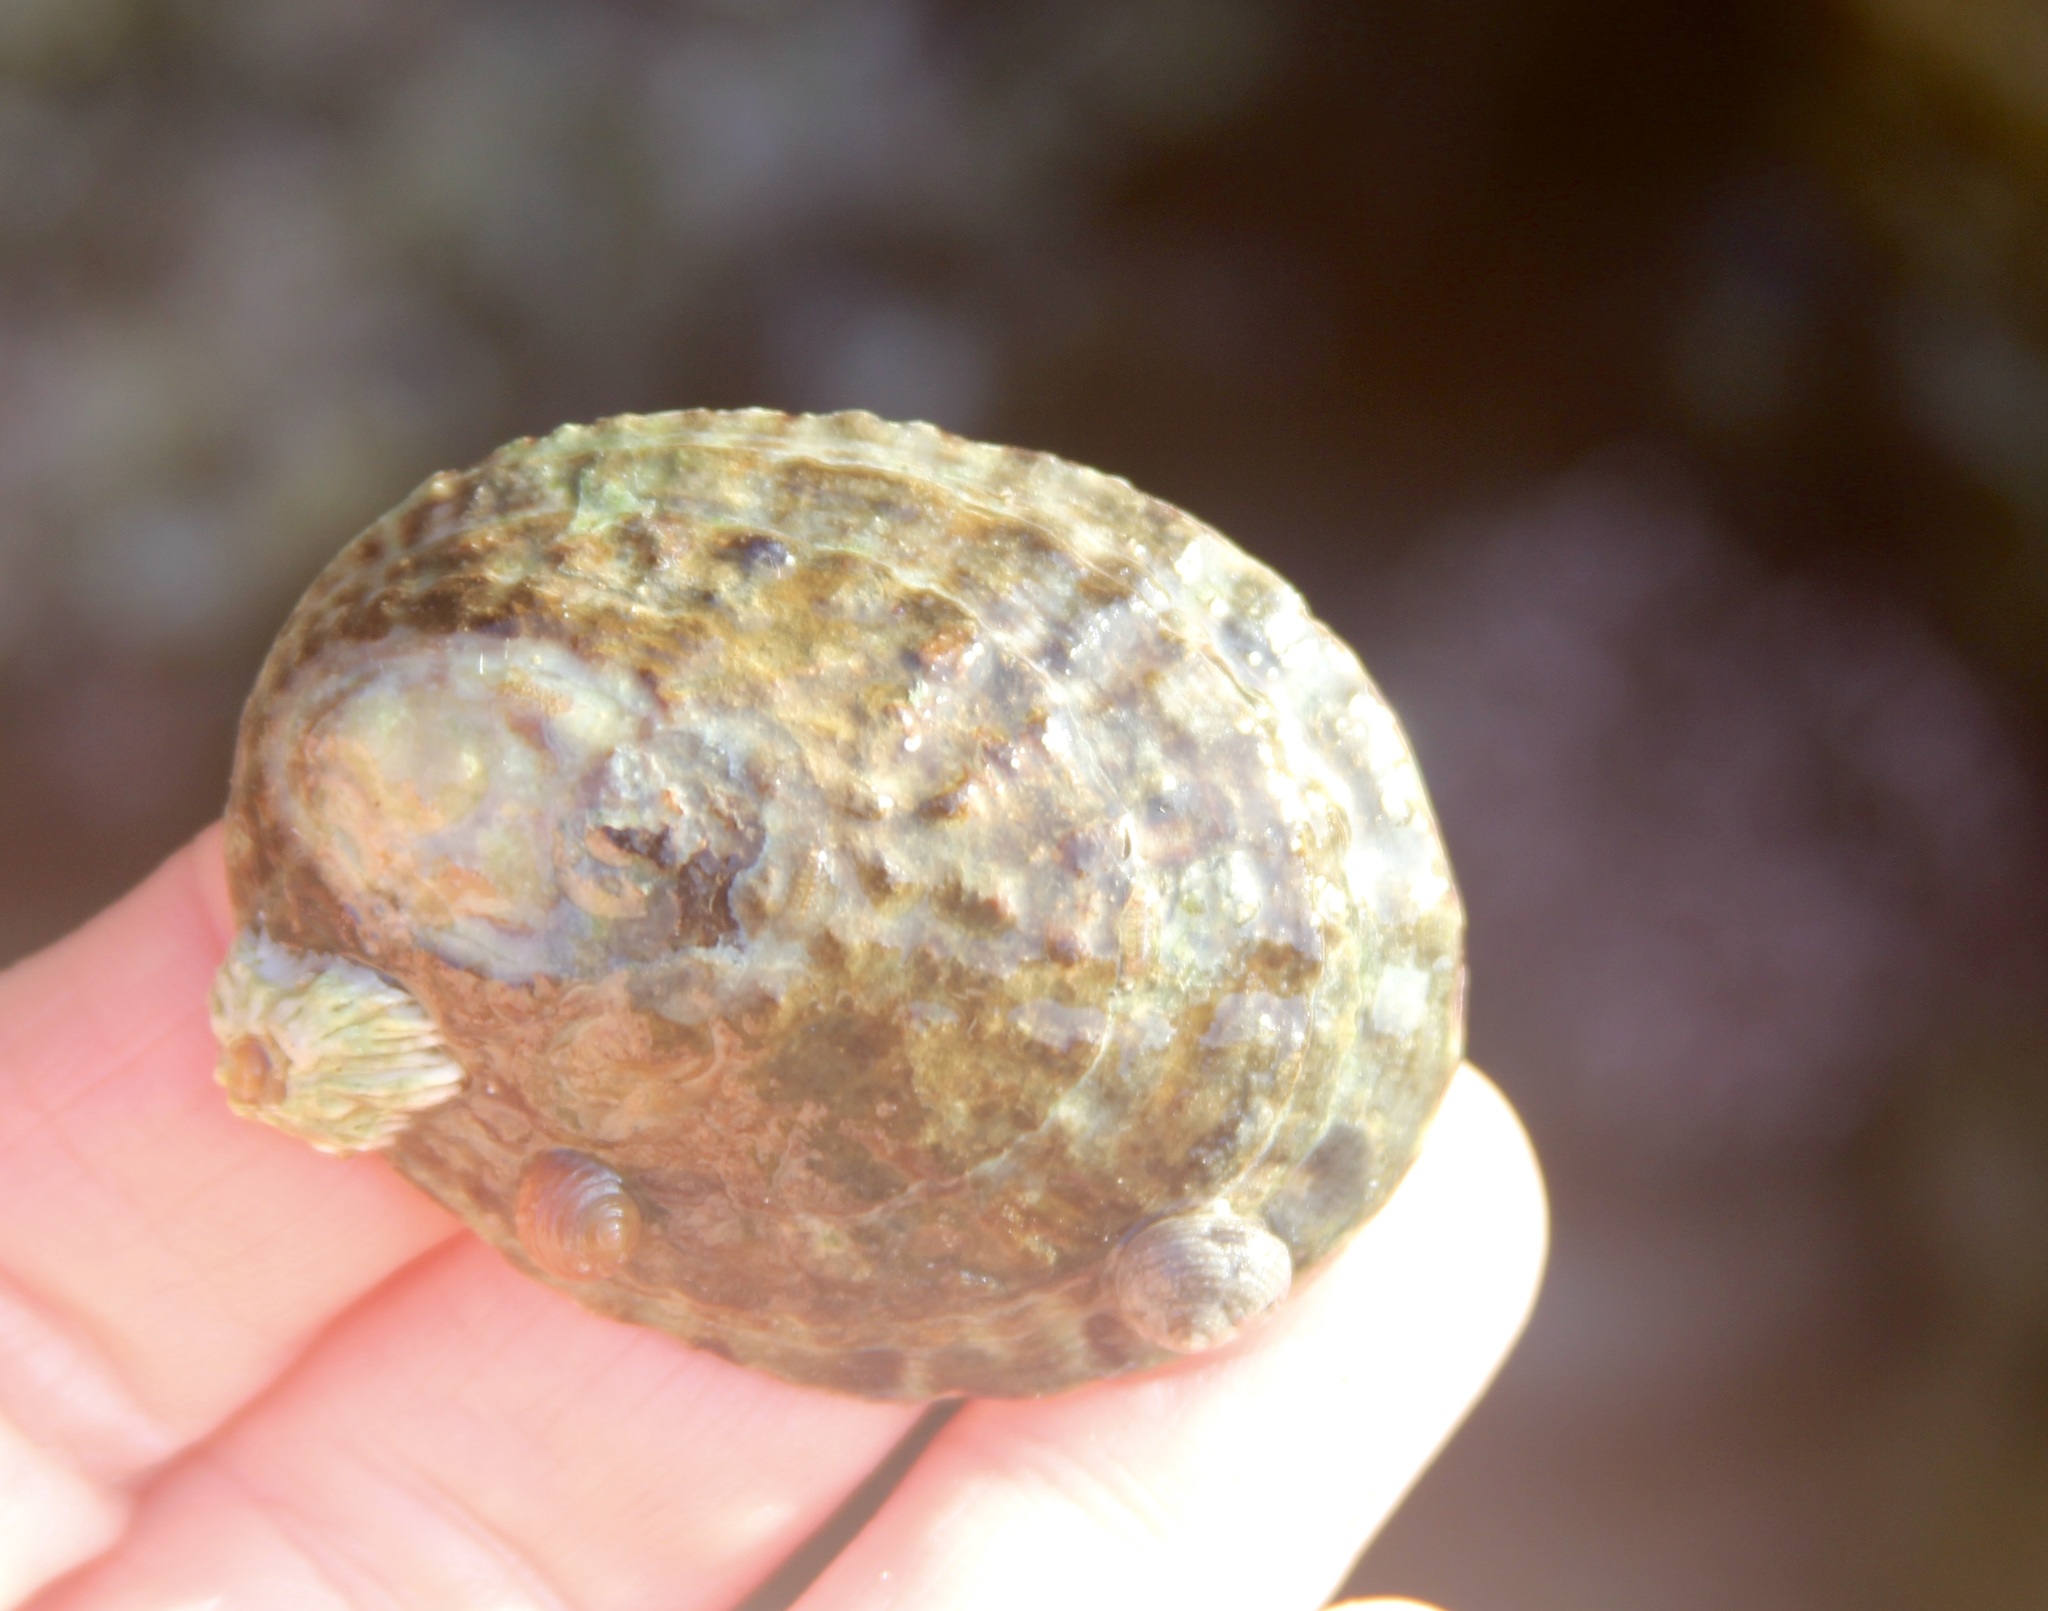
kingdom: Animalia
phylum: Mollusca
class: Gastropoda
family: Lottiidae
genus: Lottia
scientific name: Lottia gigantea
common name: Owl limpet
